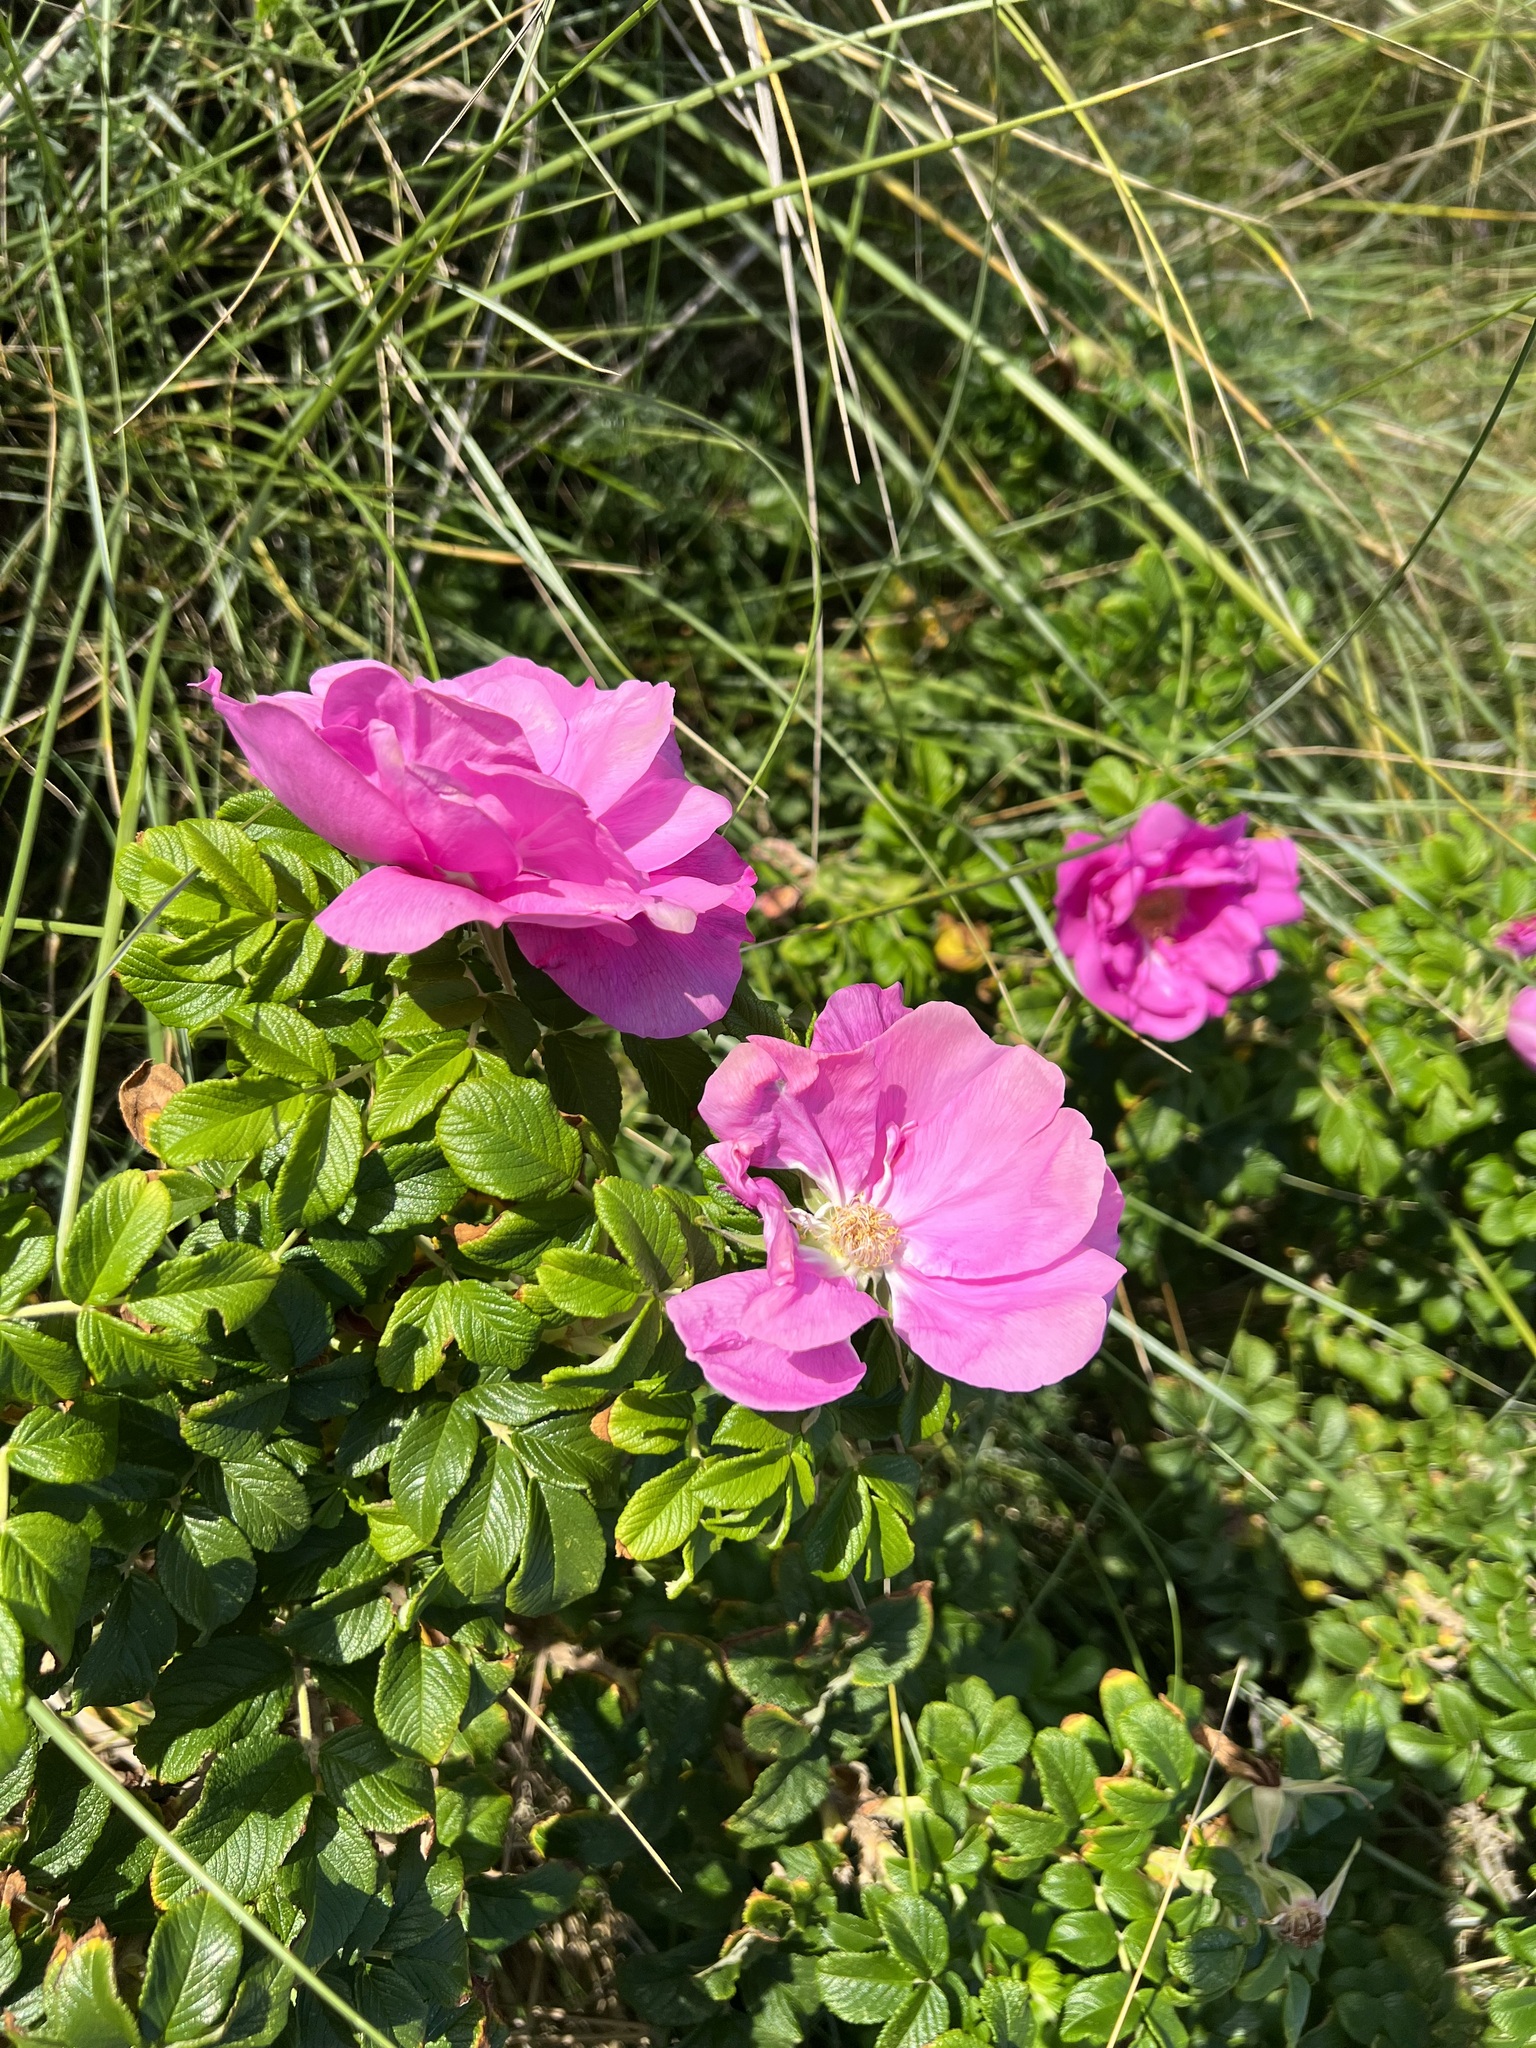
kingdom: Plantae
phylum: Tracheophyta
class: Magnoliopsida
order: Rosales
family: Rosaceae
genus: Rosa
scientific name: Rosa rugosa
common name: Japanese rose
